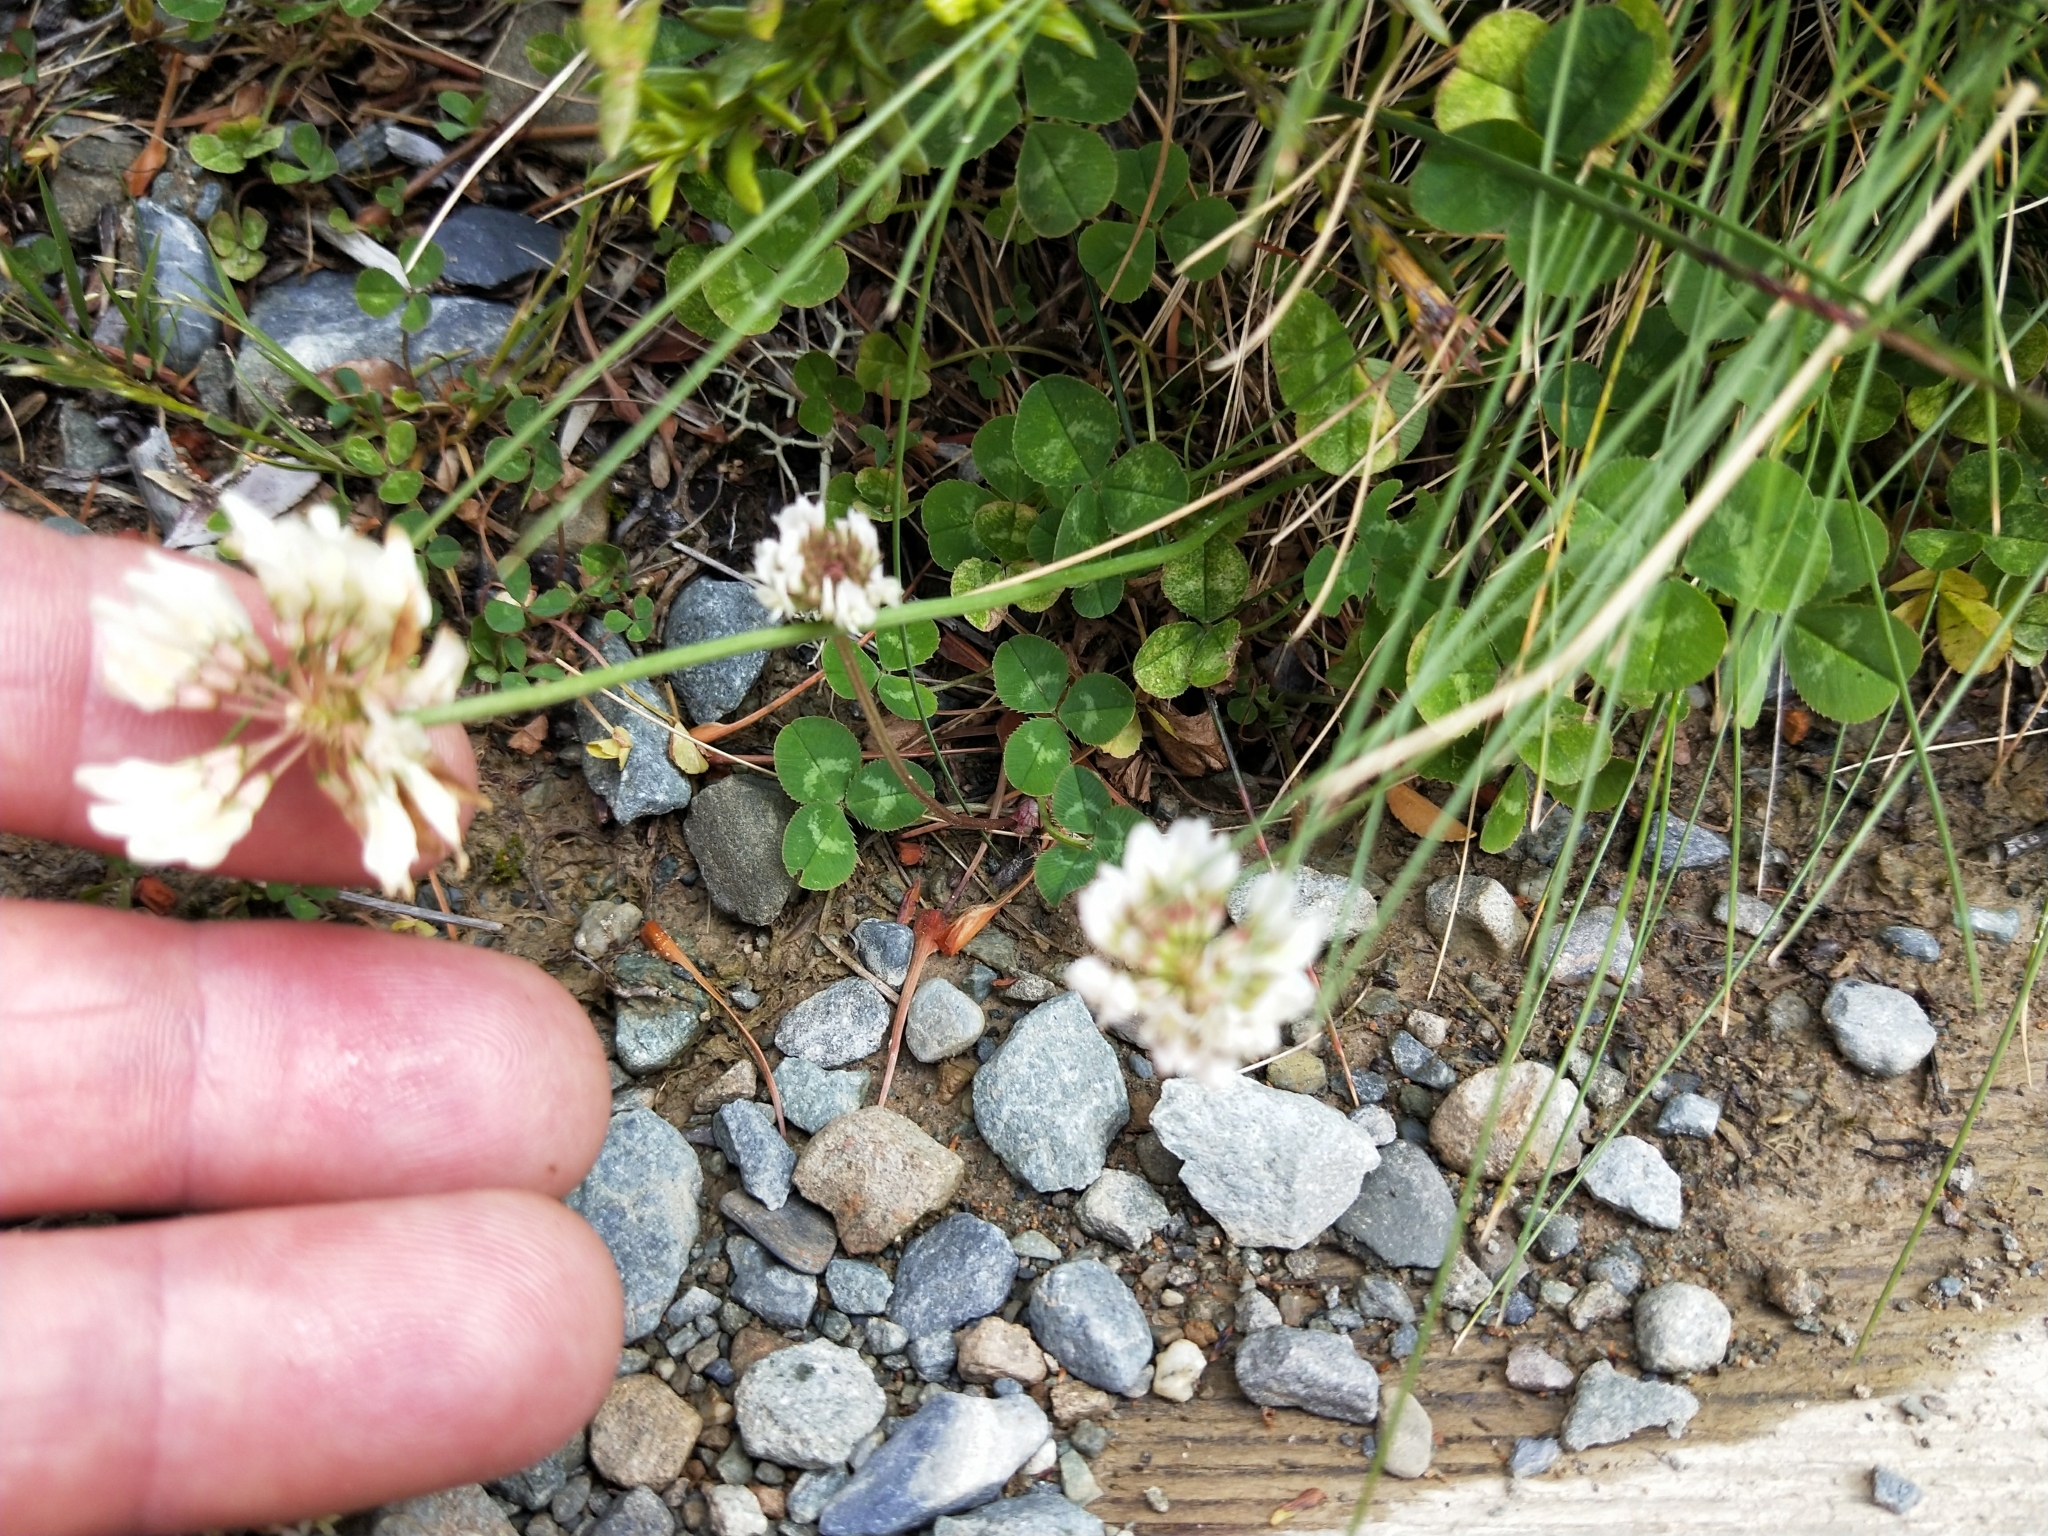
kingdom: Plantae
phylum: Tracheophyta
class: Magnoliopsida
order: Fabales
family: Fabaceae
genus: Trifolium
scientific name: Trifolium repens
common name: White clover
